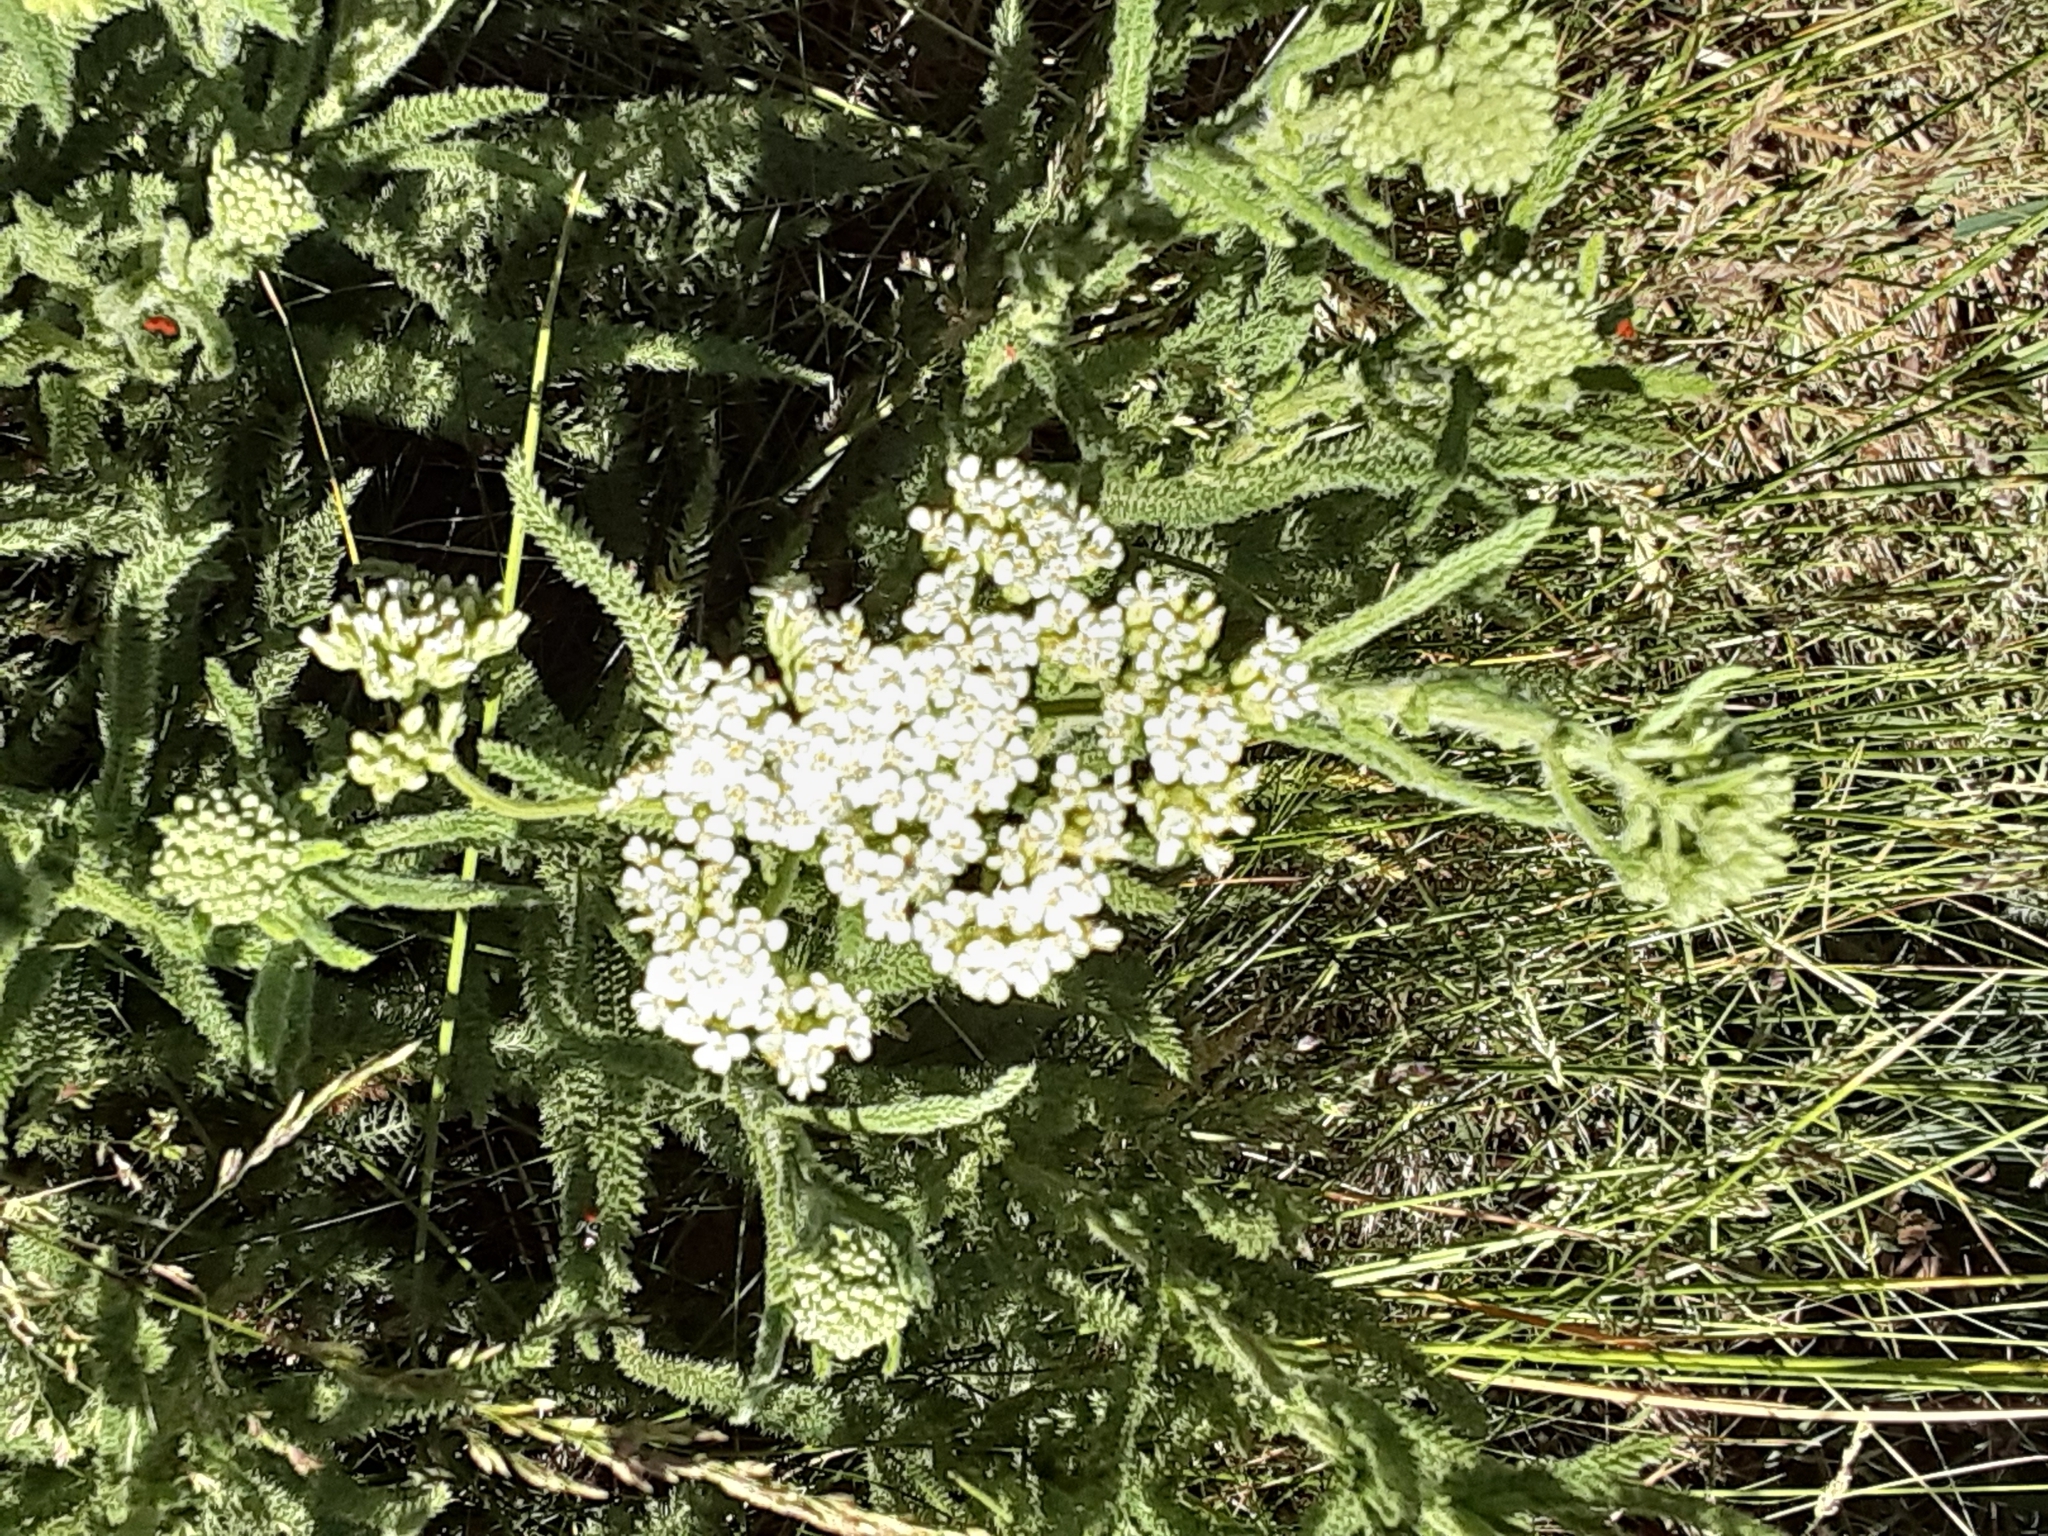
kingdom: Plantae
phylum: Tracheophyta
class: Magnoliopsida
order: Asterales
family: Asteraceae
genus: Achillea
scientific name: Achillea millefolium
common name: Yarrow
